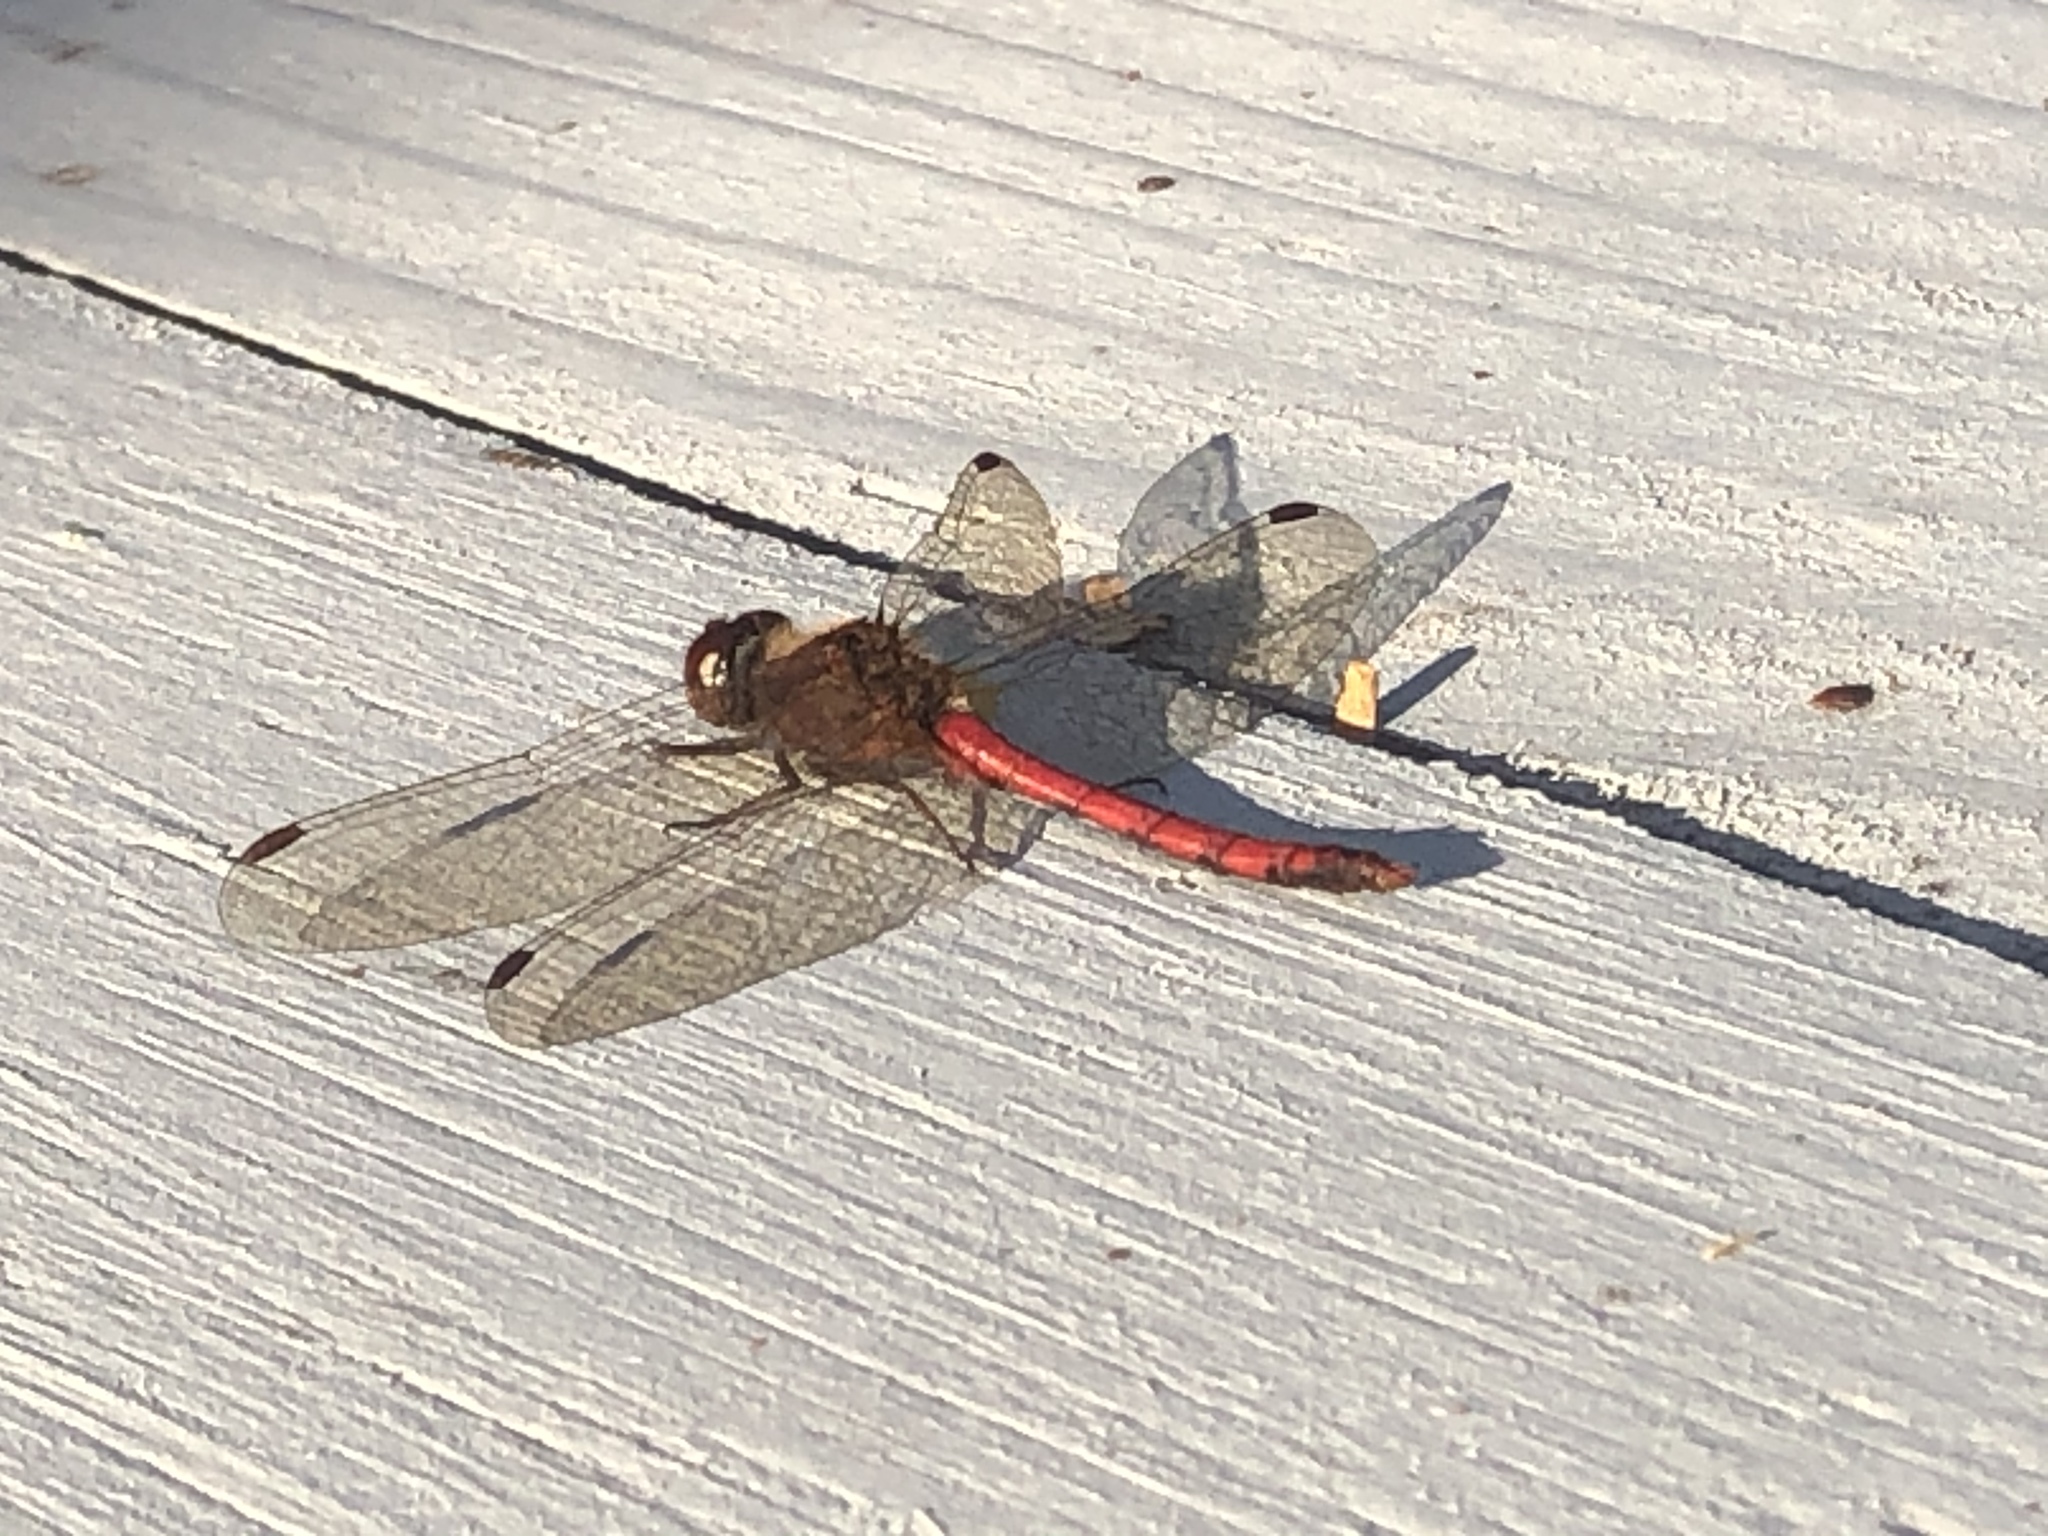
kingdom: Animalia
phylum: Arthropoda
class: Insecta
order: Odonata
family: Libellulidae
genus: Sympetrum
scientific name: Sympetrum vicinum
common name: Autumn meadowhawk
